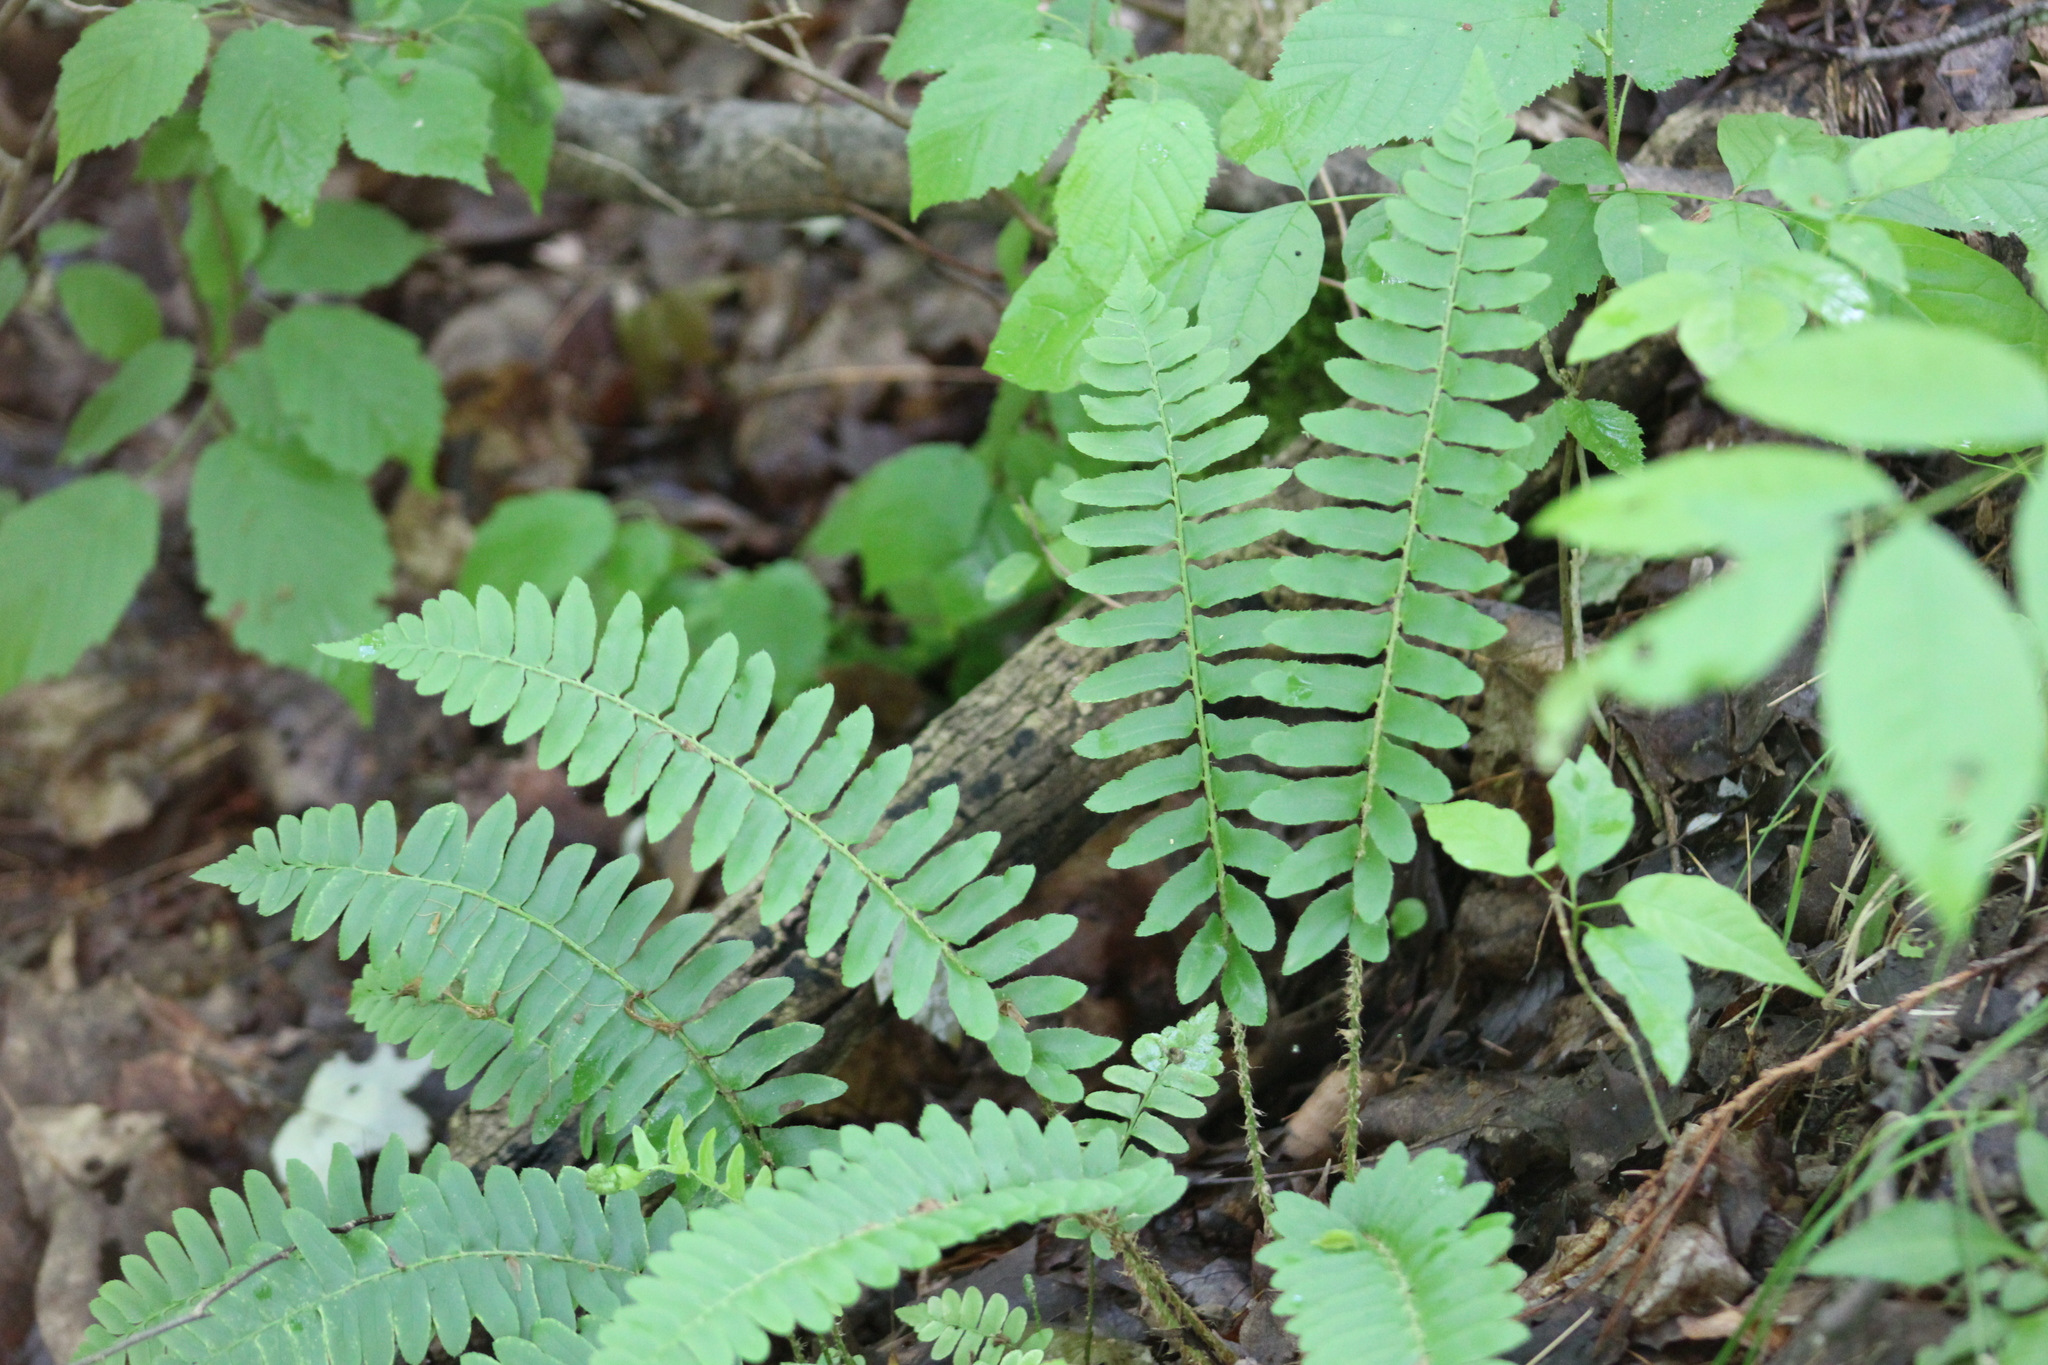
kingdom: Plantae
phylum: Tracheophyta
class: Polypodiopsida
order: Polypodiales
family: Dryopteridaceae
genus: Polystichum
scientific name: Polystichum acrostichoides
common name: Christmas fern
